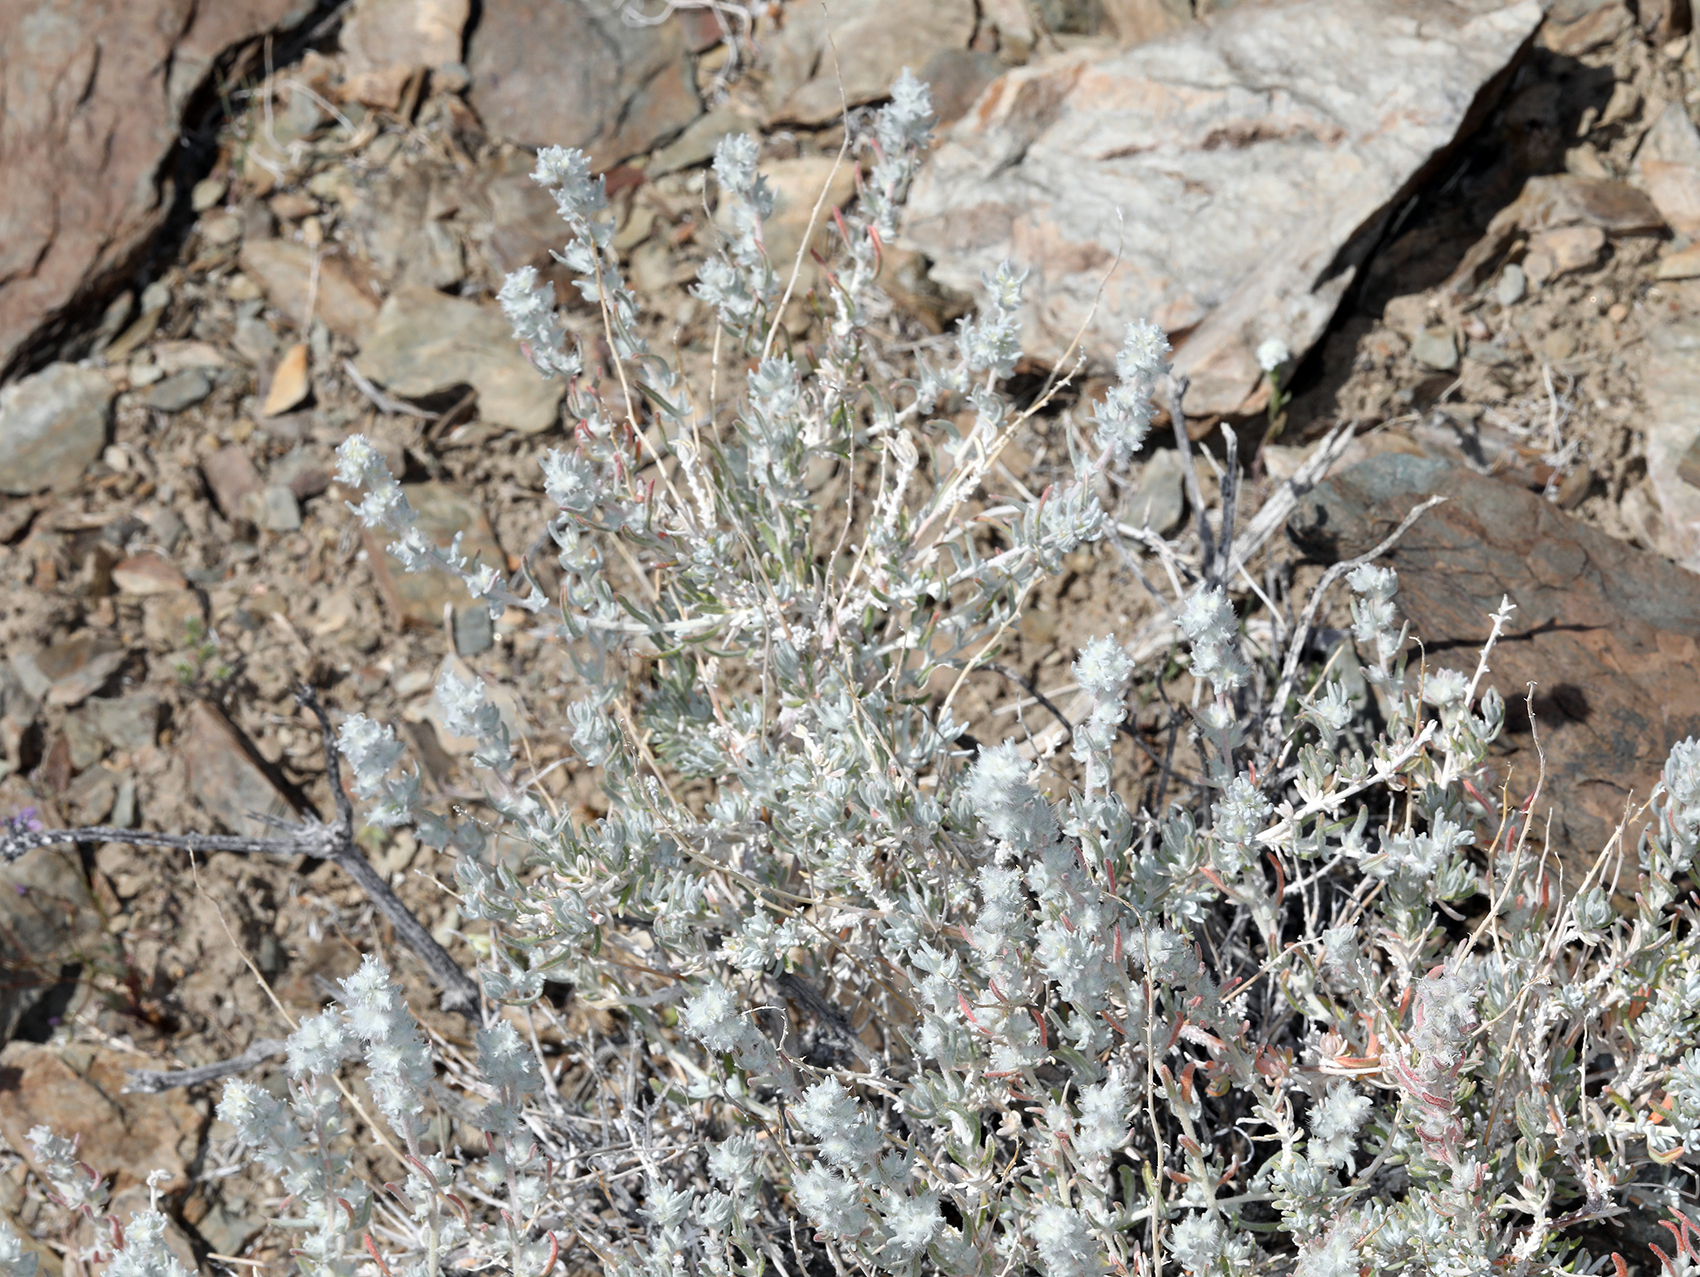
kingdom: Plantae
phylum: Tracheophyta
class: Magnoliopsida
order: Caryophyllales
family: Amaranthaceae
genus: Krascheninnikovia
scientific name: Krascheninnikovia lanata
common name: Winterfat
